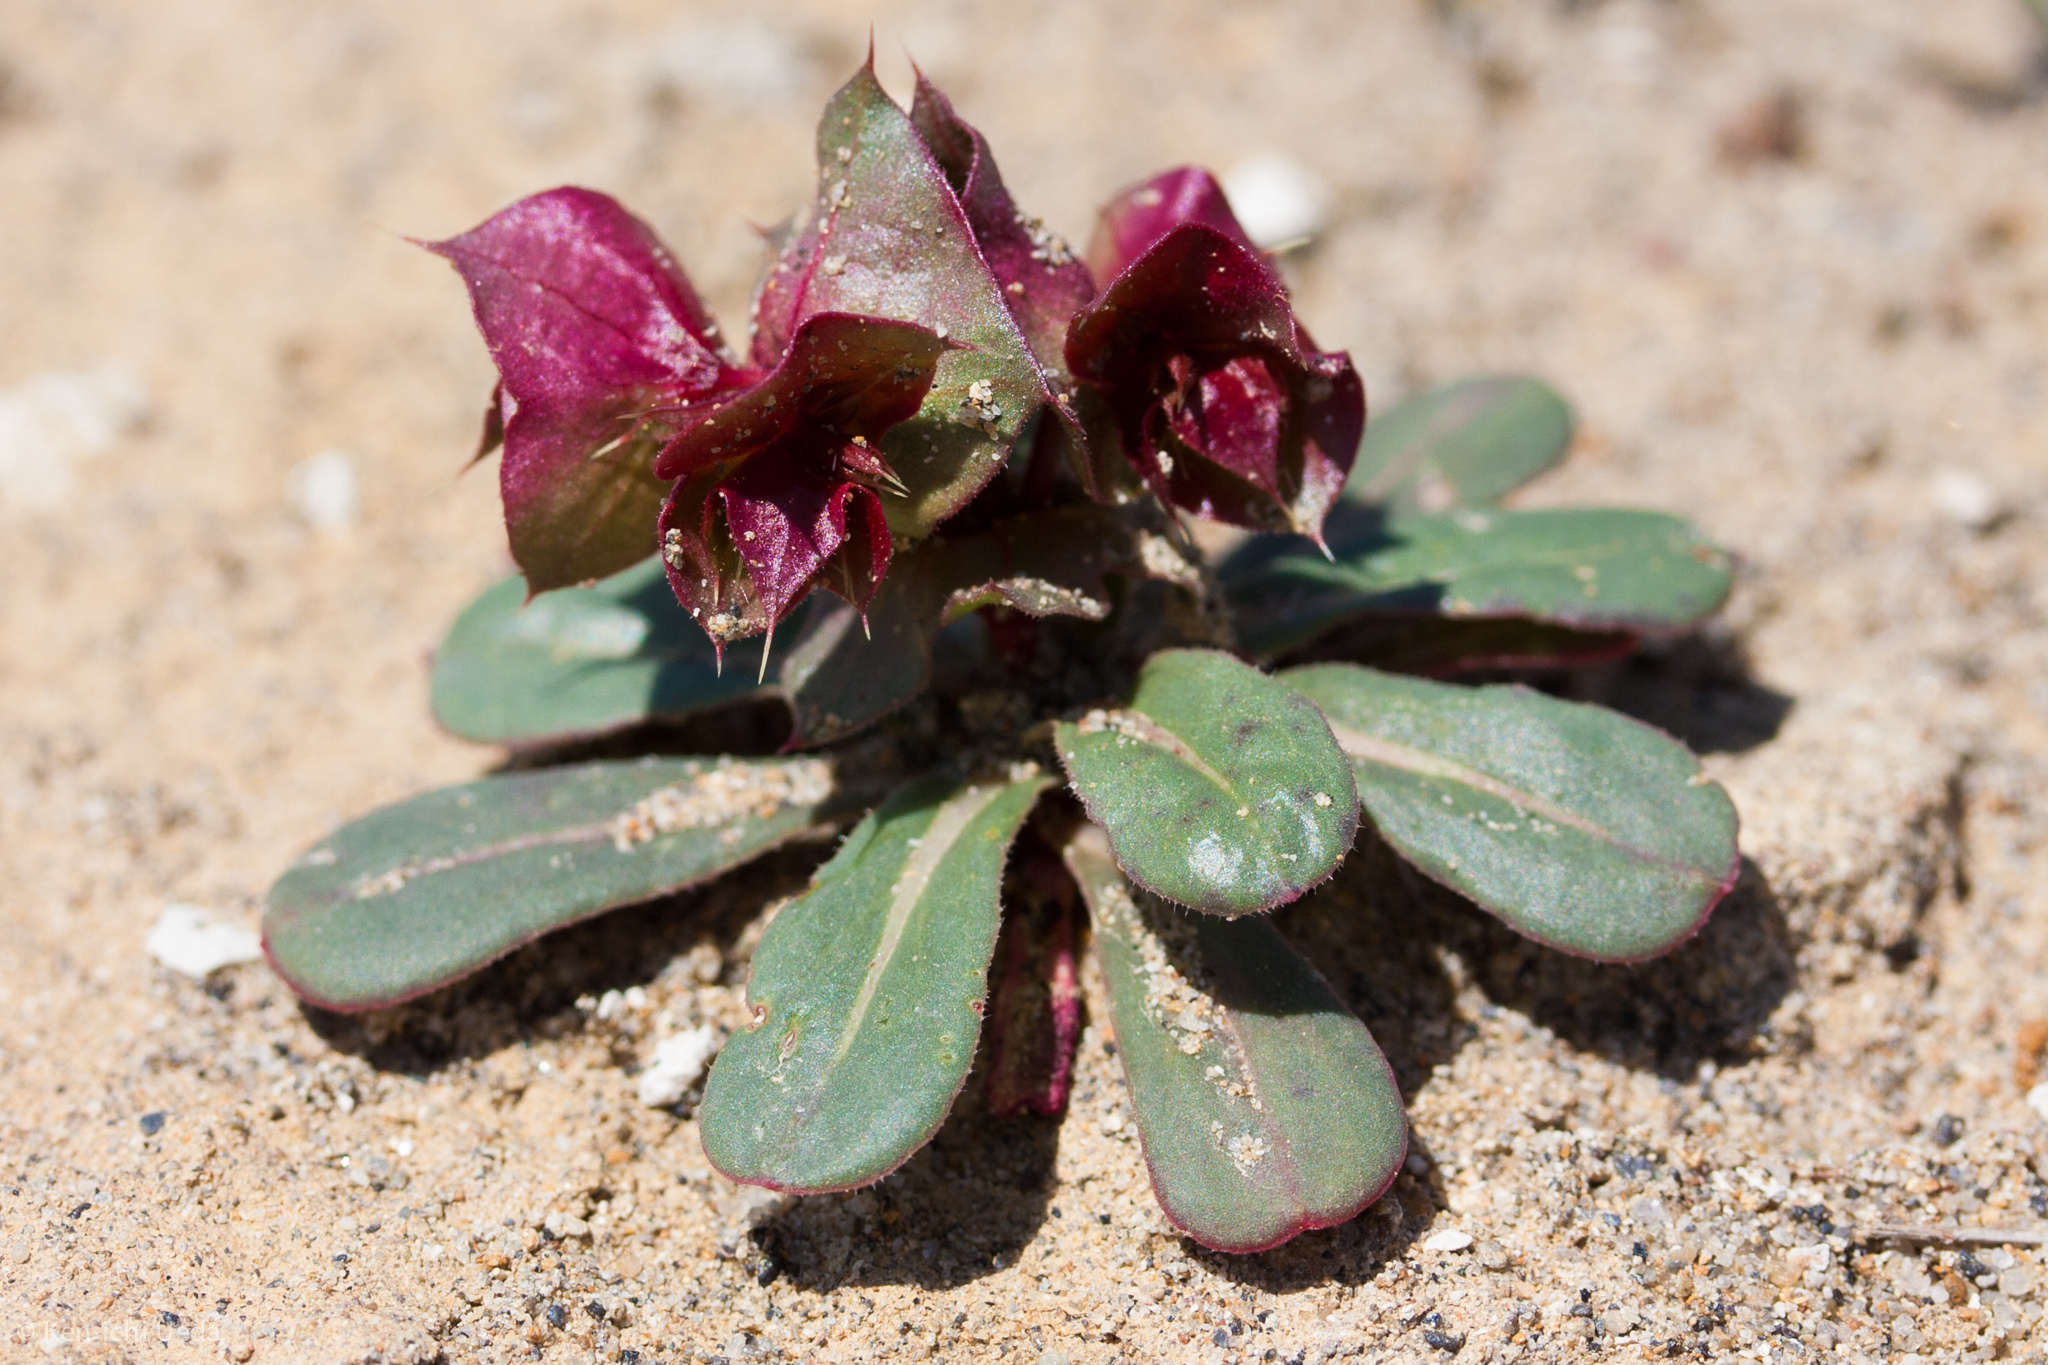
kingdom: Plantae
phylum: Tracheophyta
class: Magnoliopsida
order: Caryophyllales
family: Polygonaceae
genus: Mucronea
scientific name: Mucronea perfoliata
